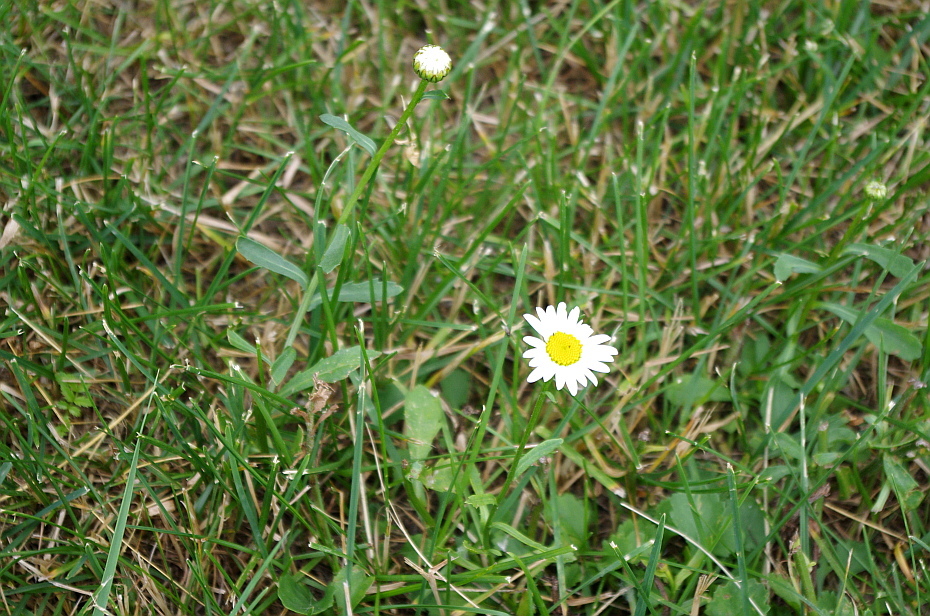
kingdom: Plantae
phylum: Tracheophyta
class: Magnoliopsida
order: Asterales
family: Asteraceae
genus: Leucanthemum
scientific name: Leucanthemum vulgare
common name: Oxeye daisy
